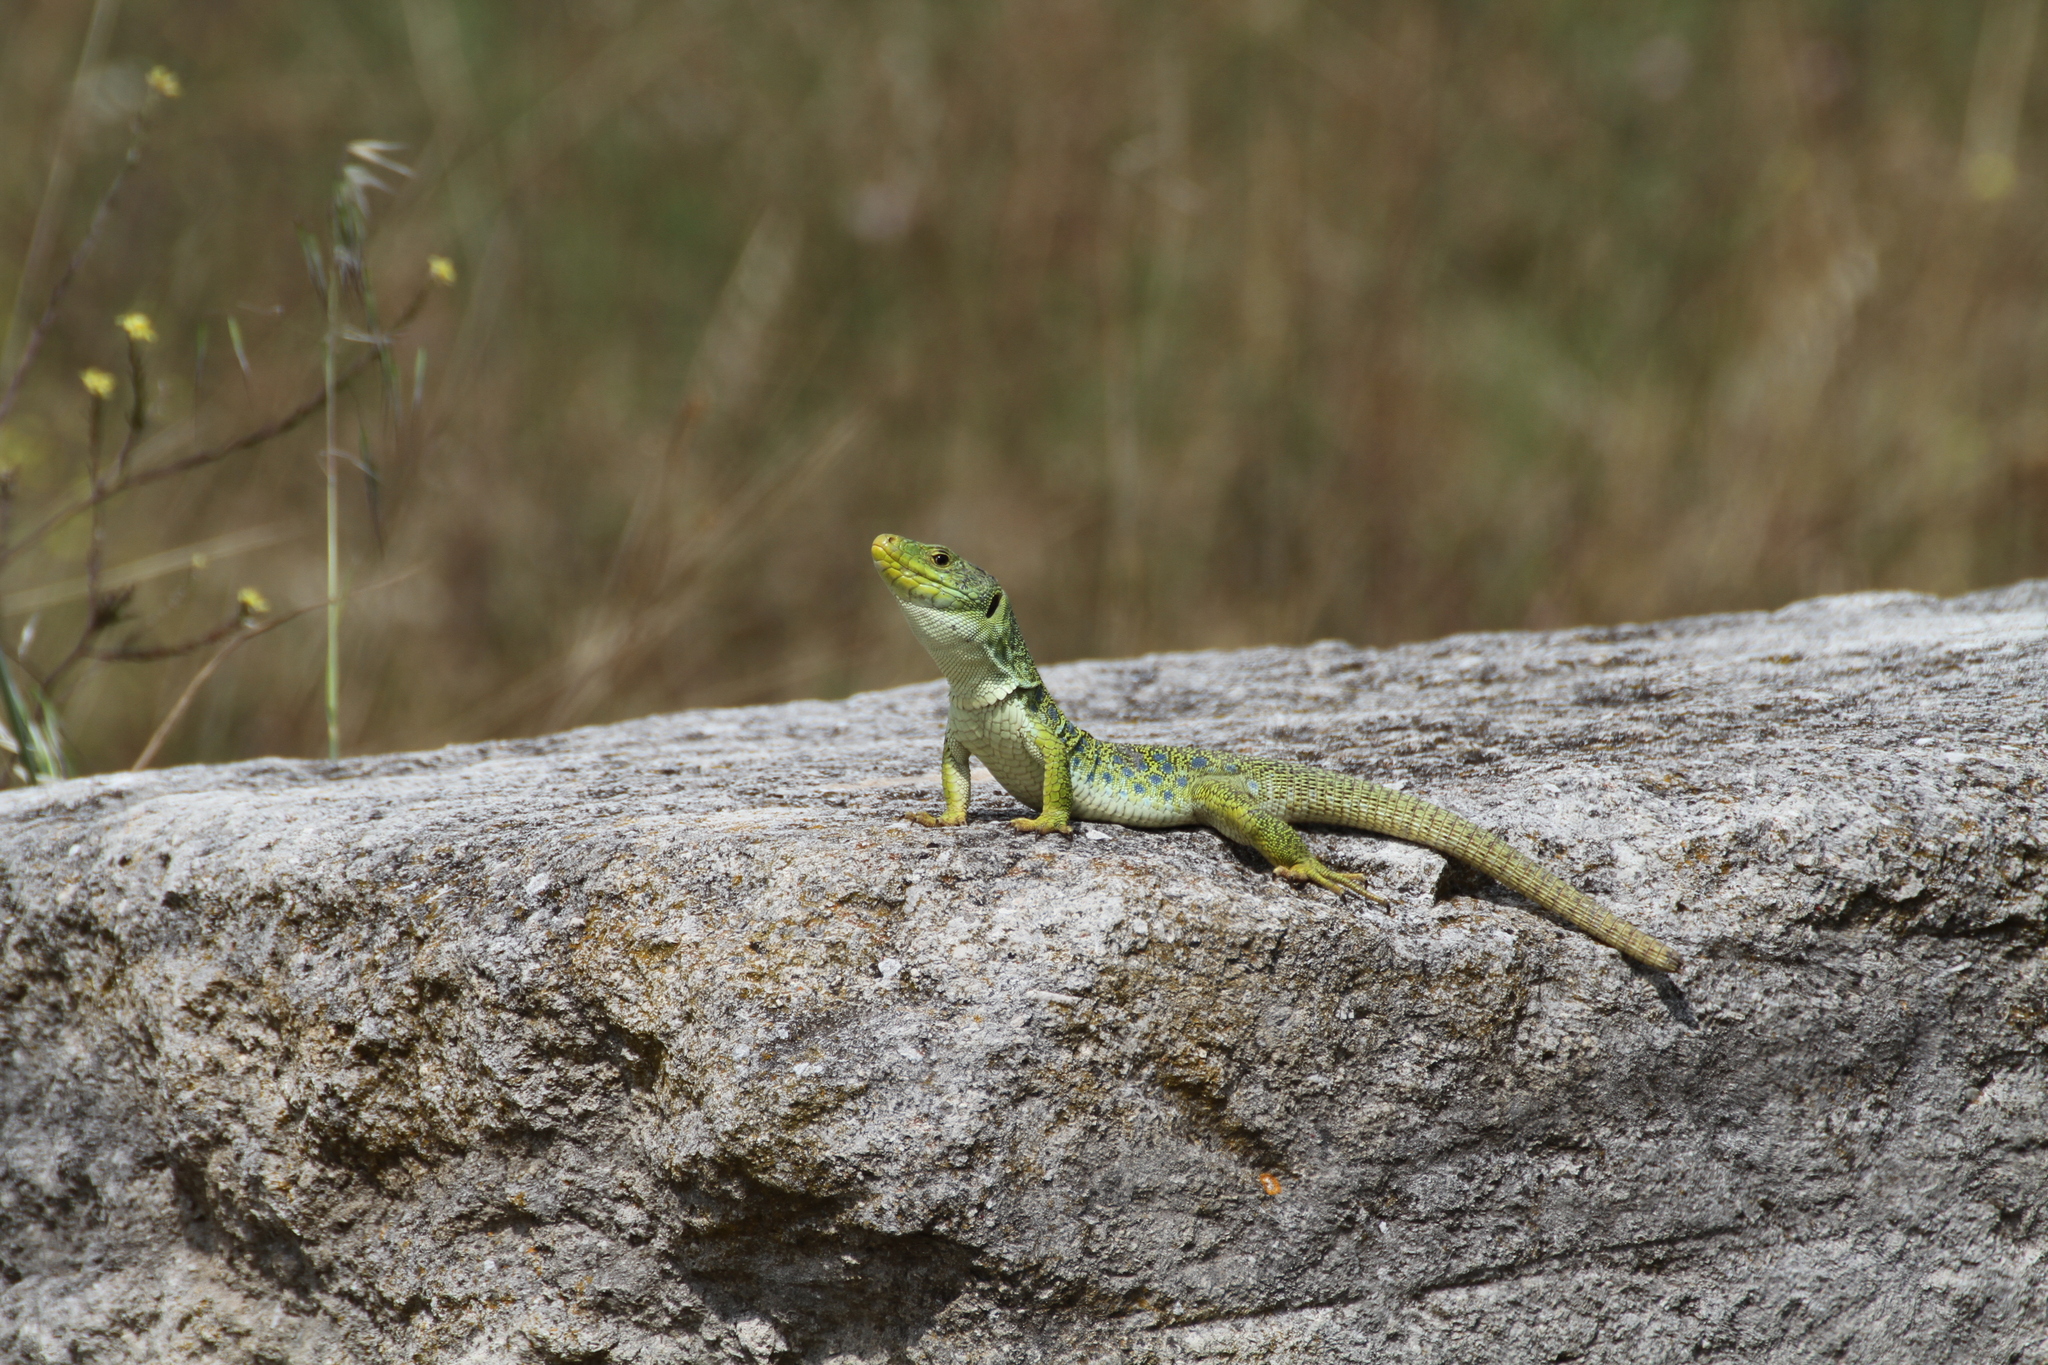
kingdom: Animalia
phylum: Chordata
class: Squamata
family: Lacertidae
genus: Timon
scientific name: Timon lepidus
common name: Ocellated lizard
